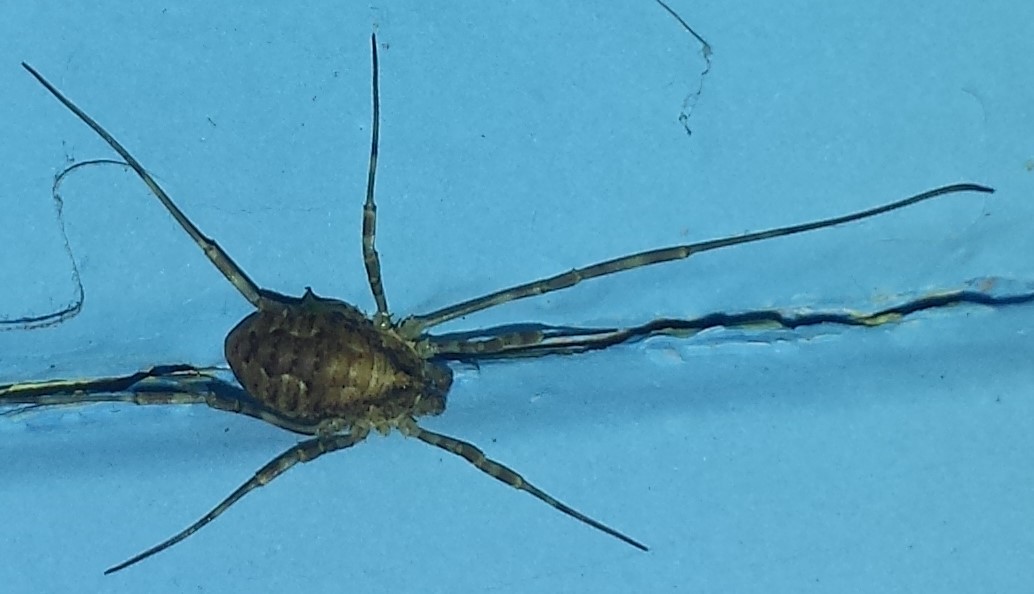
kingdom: Animalia
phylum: Arthropoda
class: Arachnida
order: Opiliones
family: Phalangiidae
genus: Odiellus
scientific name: Odiellus pictus
